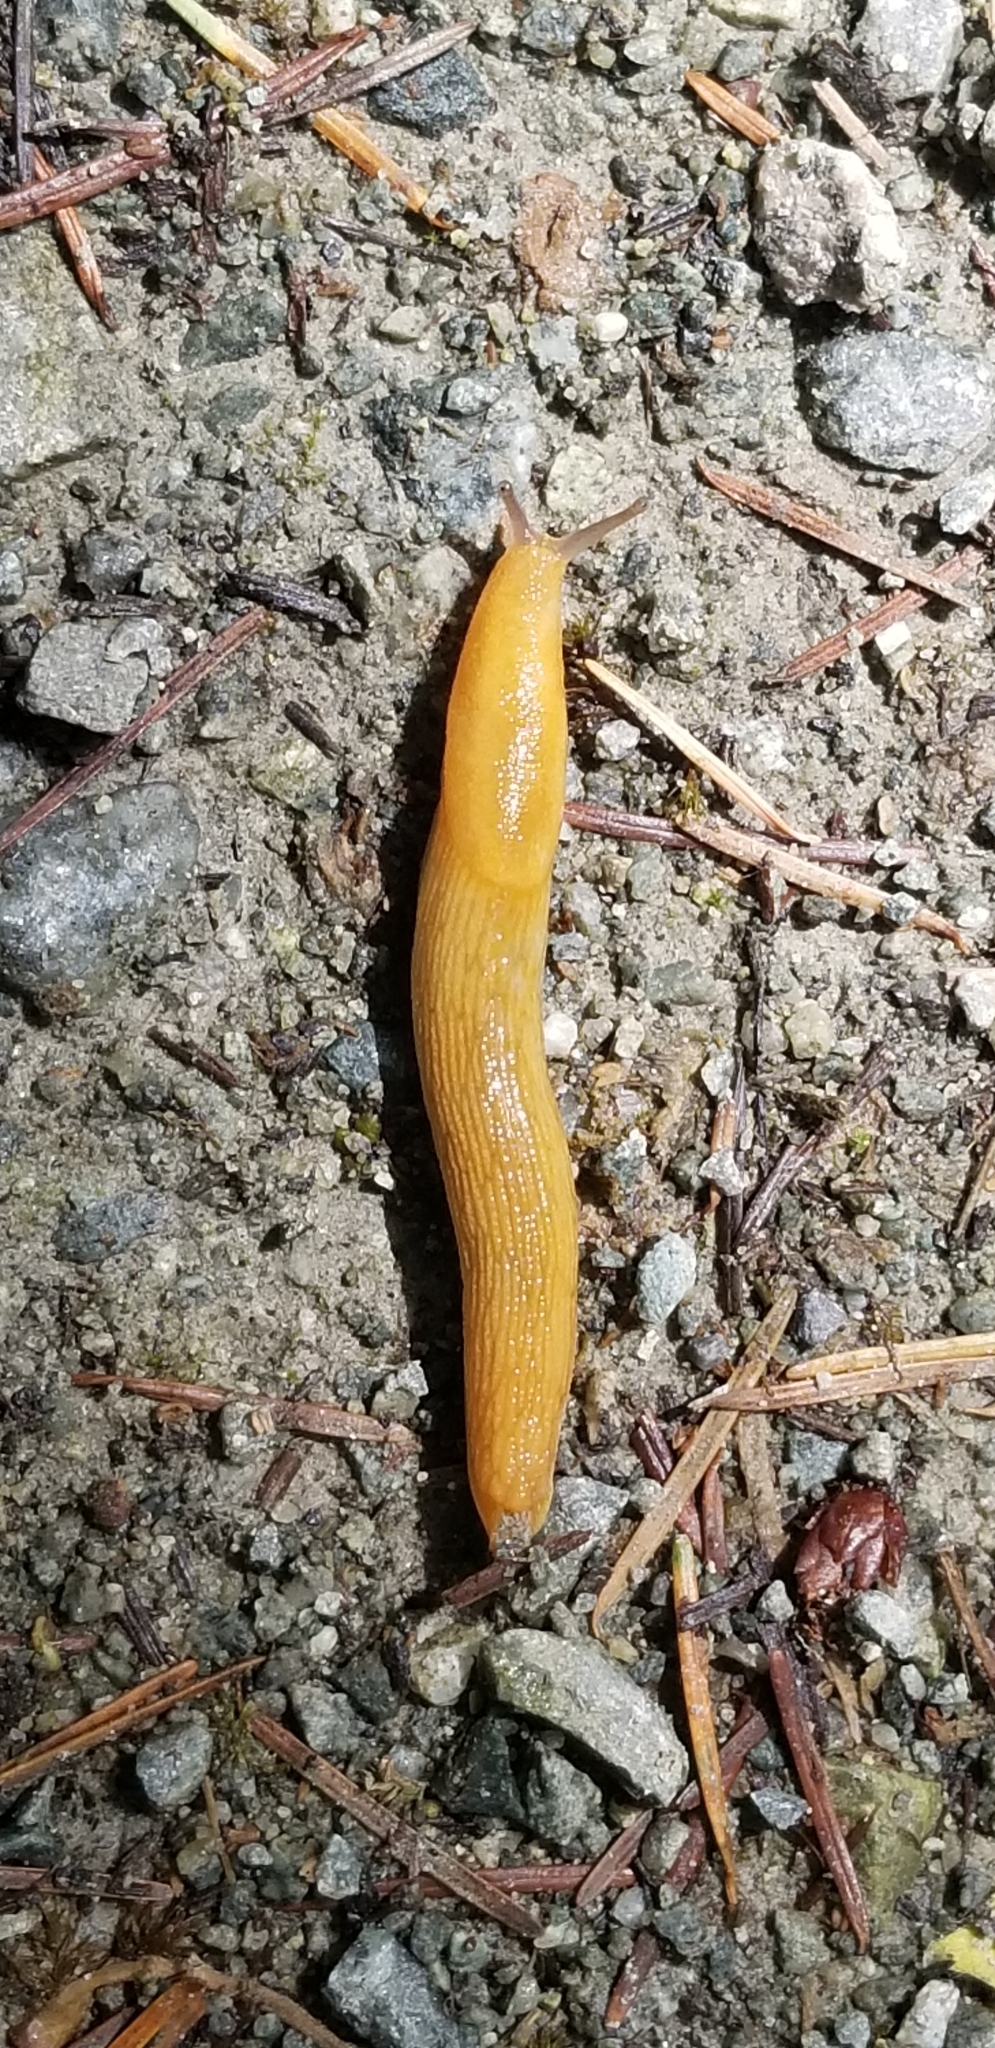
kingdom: Animalia
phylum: Mollusca
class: Gastropoda
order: Stylommatophora
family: Ariolimacidae
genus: Ariolimax
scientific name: Ariolimax columbianus
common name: Pacific banana slug
